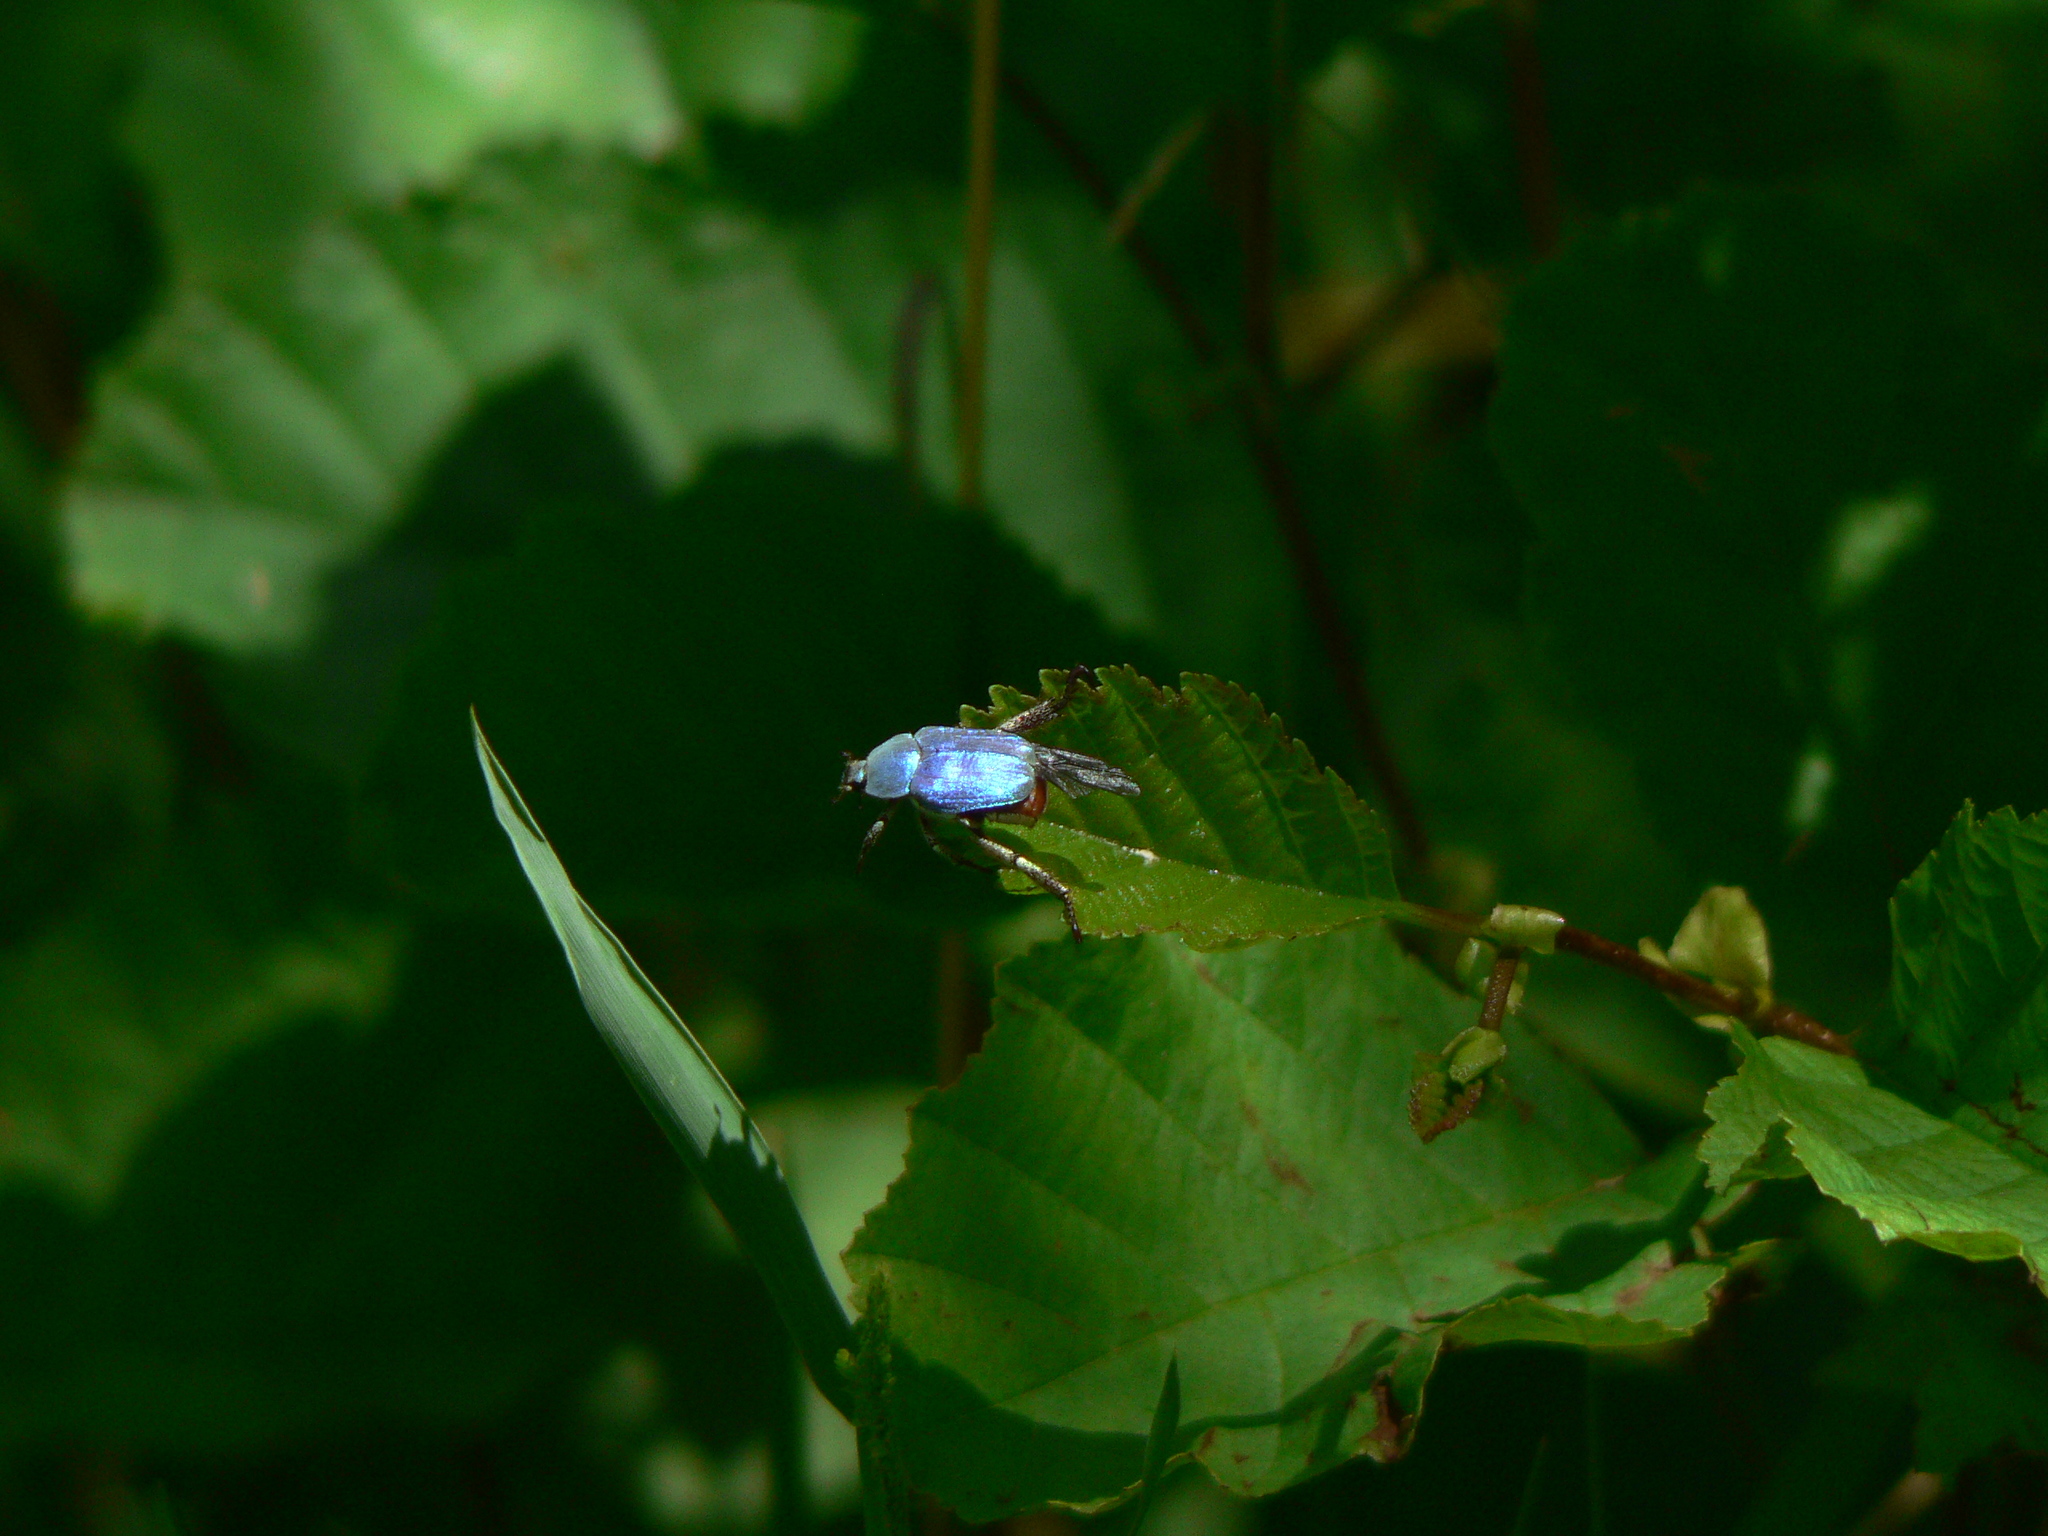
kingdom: Animalia
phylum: Arthropoda
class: Insecta
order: Coleoptera
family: Scarabaeidae
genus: Hoplia
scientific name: Hoplia coerulea
